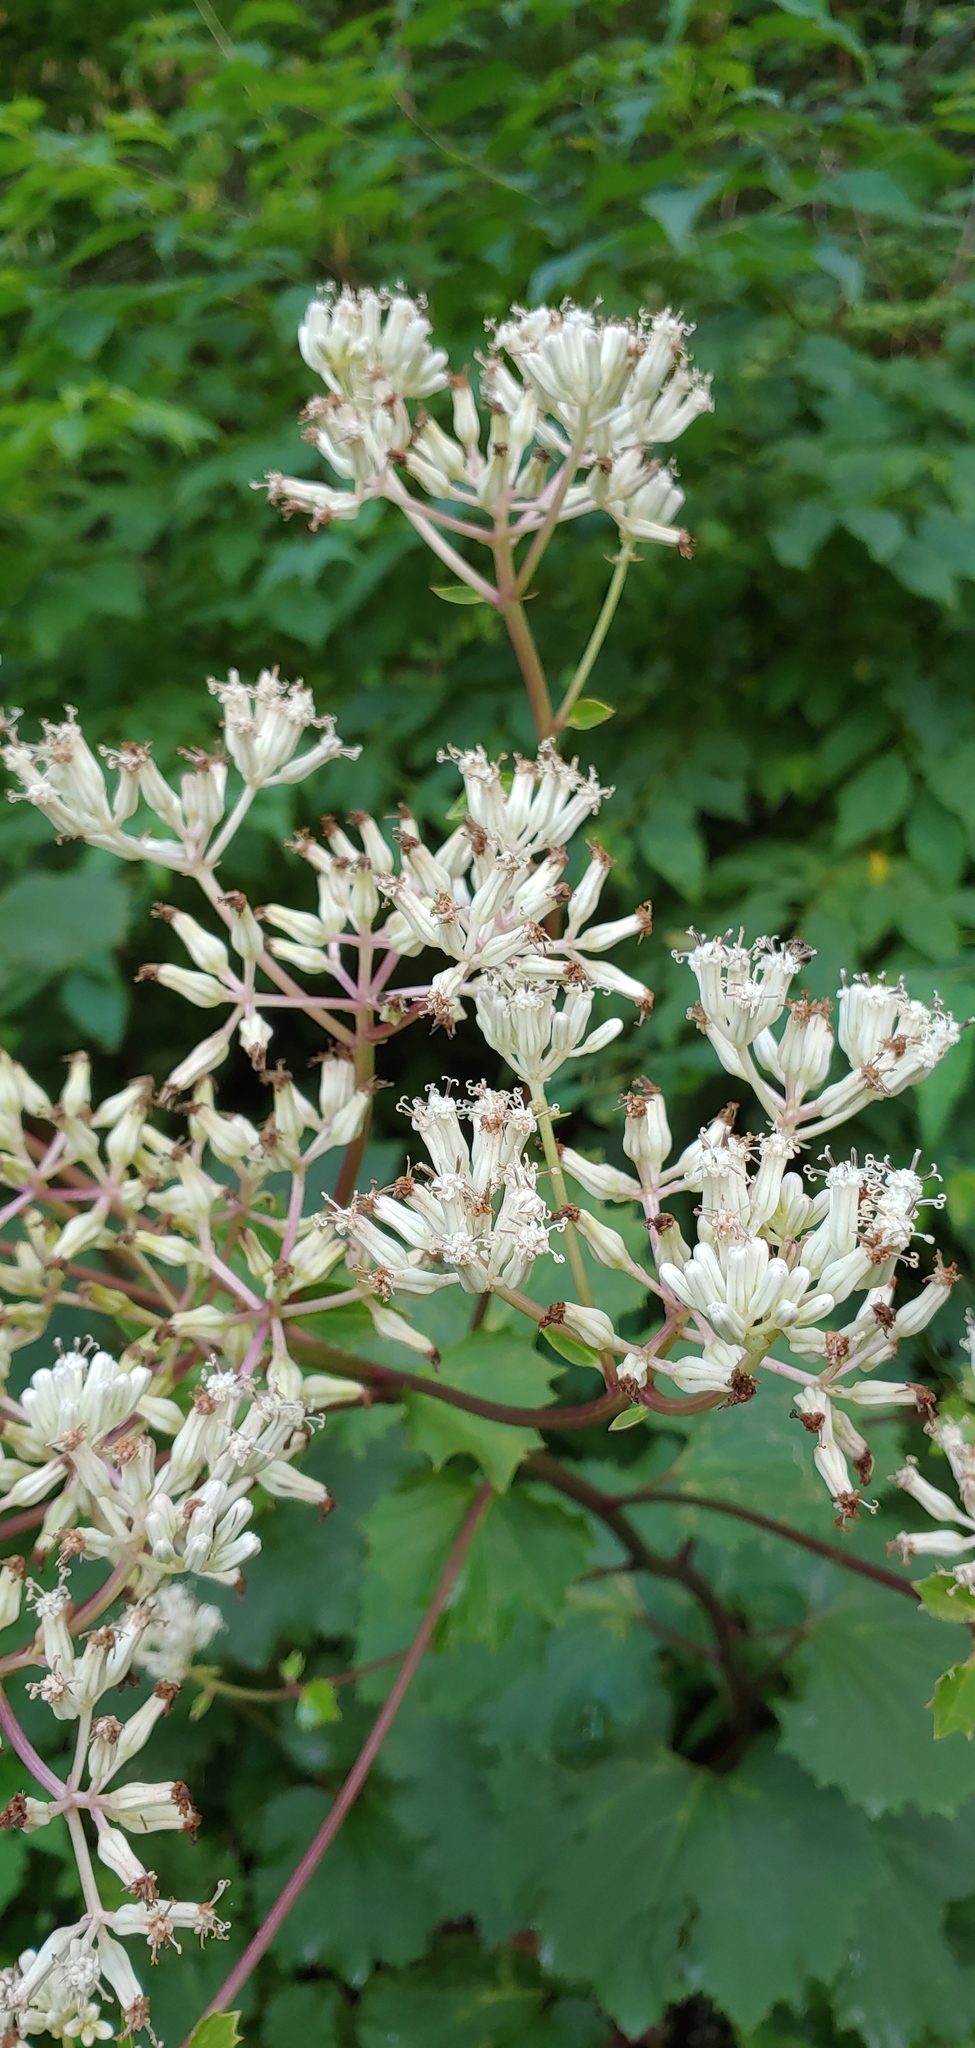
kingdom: Plantae
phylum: Tracheophyta
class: Magnoliopsida
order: Asterales
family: Asteraceae
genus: Arnoglossum
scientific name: Arnoglossum atriplicifolium
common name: Pale indian-plantain
